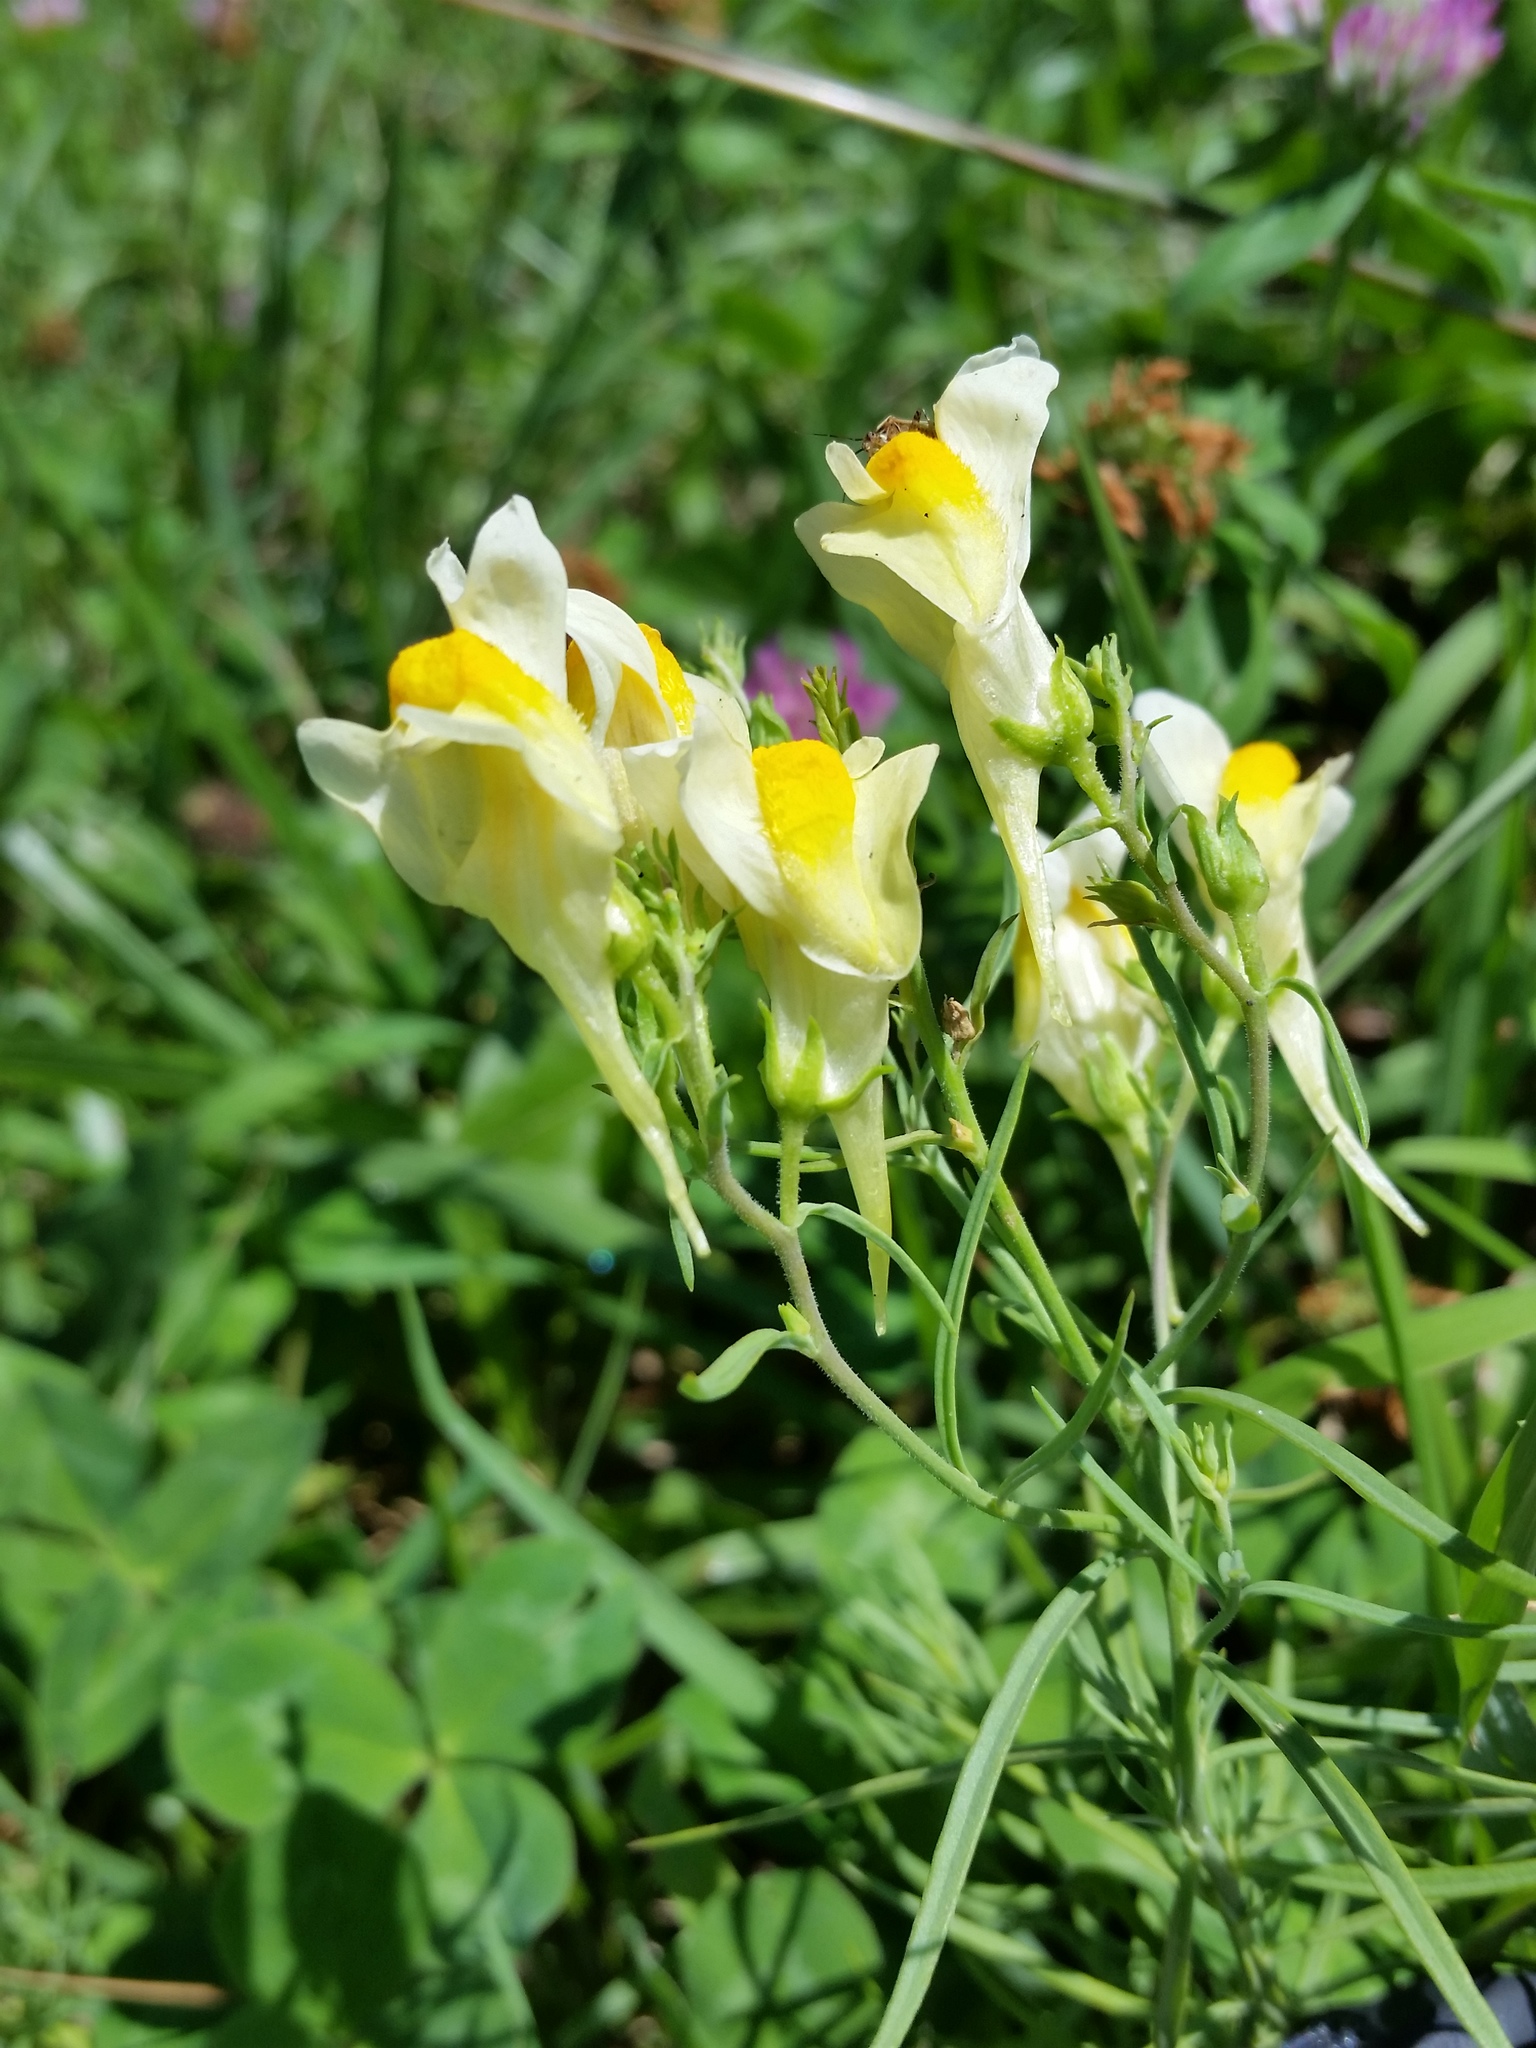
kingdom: Plantae
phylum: Tracheophyta
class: Magnoliopsida
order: Lamiales
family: Plantaginaceae
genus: Linaria
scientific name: Linaria vulgaris
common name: Butter and eggs
